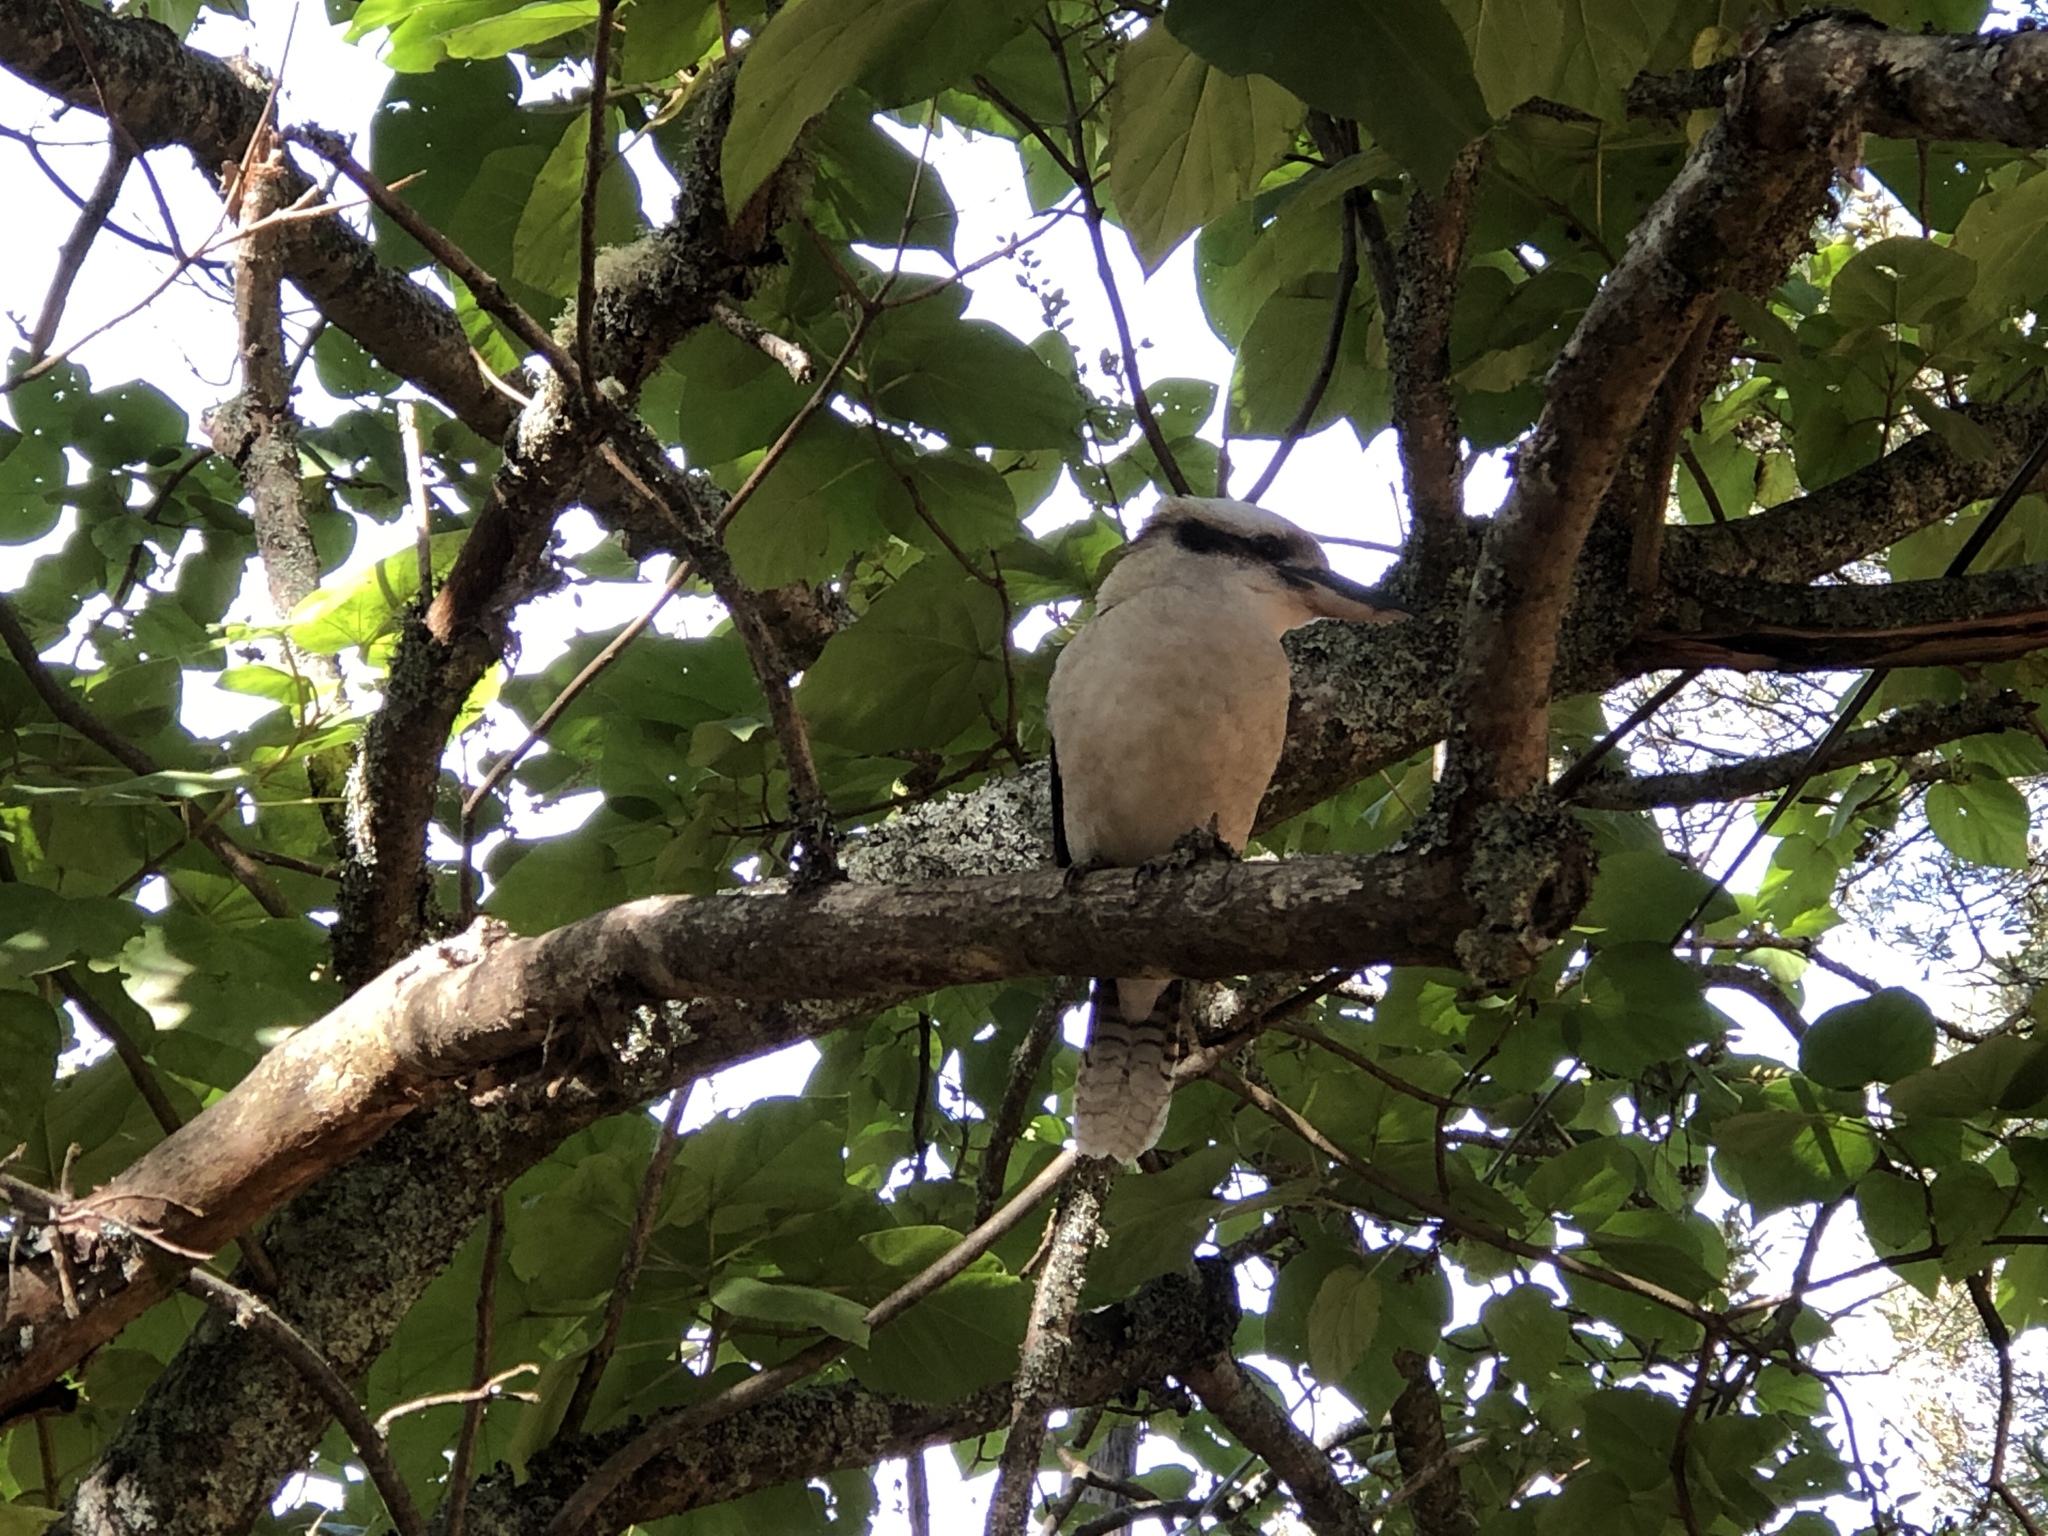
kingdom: Animalia
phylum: Chordata
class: Aves
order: Coraciiformes
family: Alcedinidae
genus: Dacelo
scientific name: Dacelo novaeguineae
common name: Laughing kookaburra
